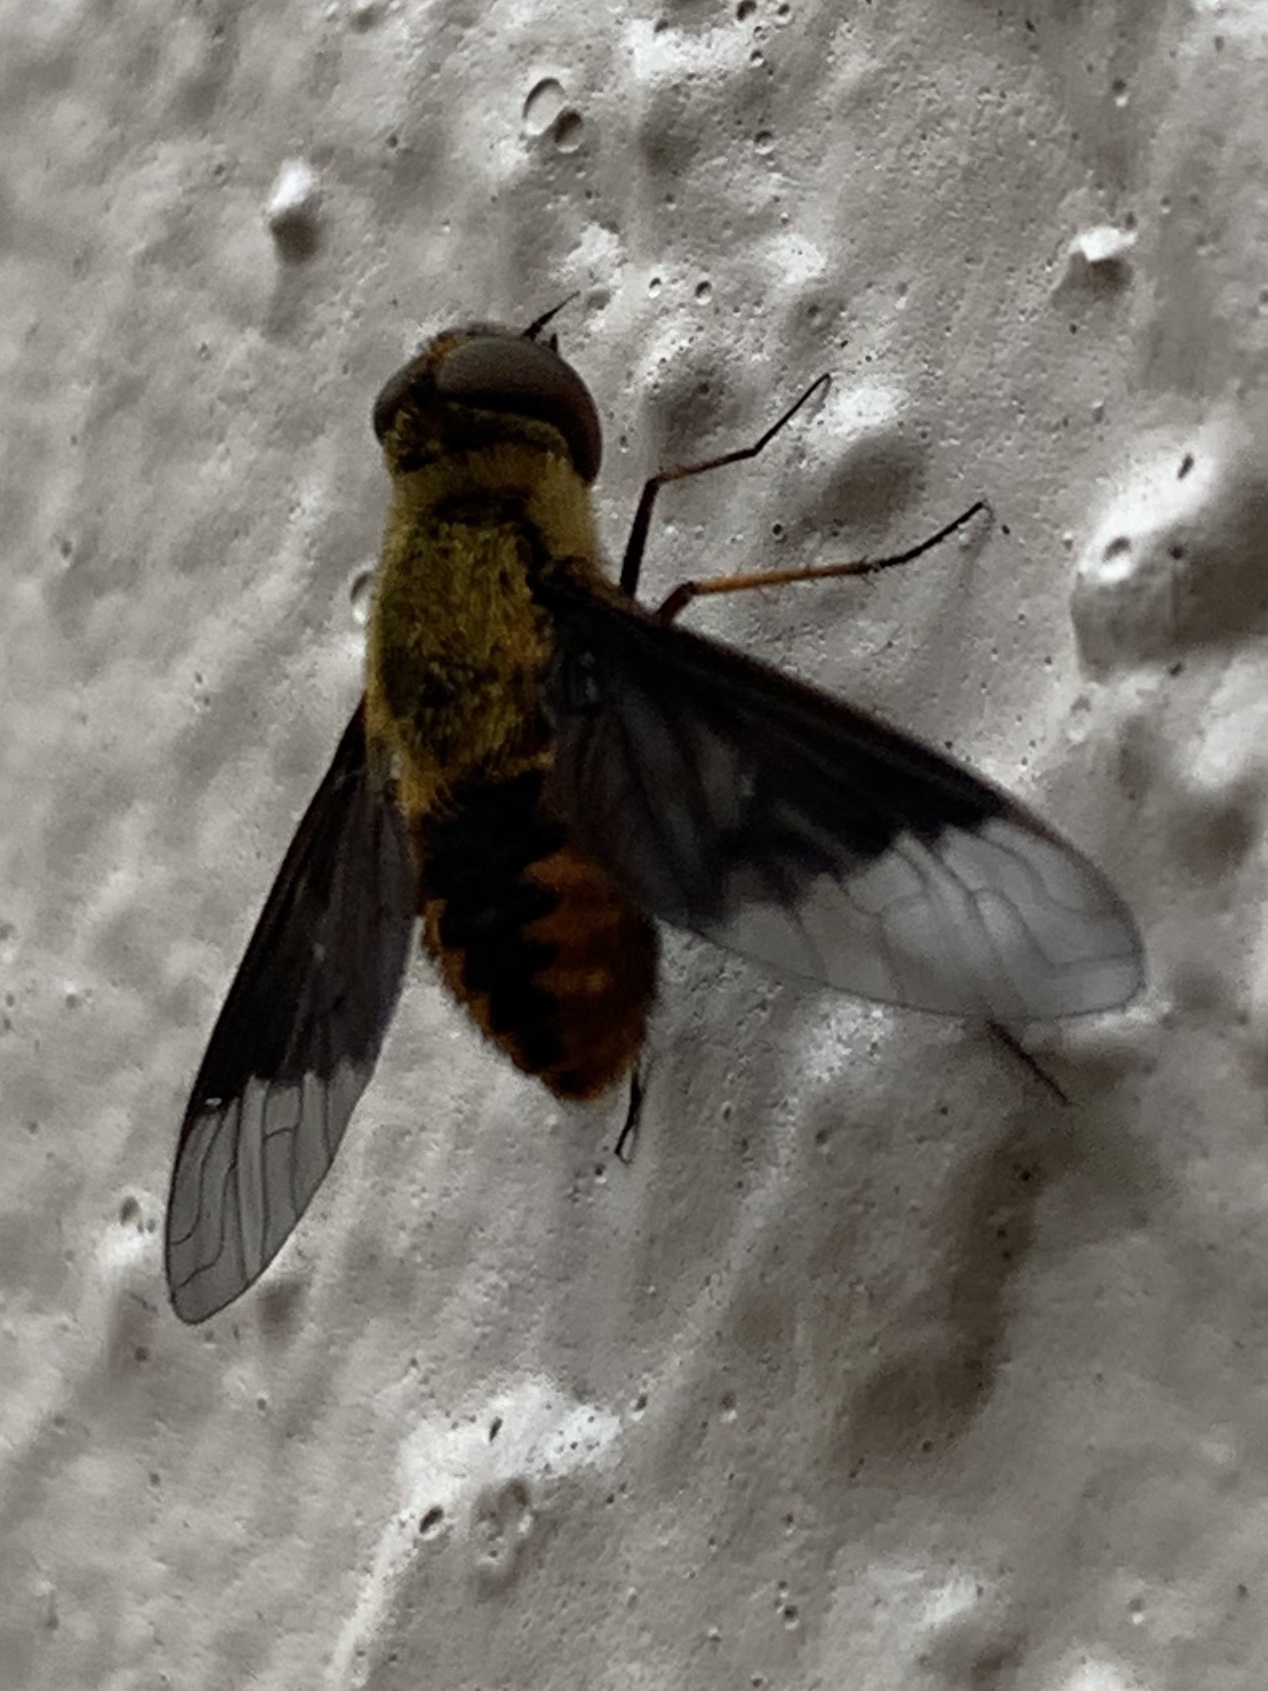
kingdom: Animalia
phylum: Arthropoda
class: Insecta
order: Diptera
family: Bombyliidae
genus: Chrysanthrax
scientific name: Chrysanthrax cypris
